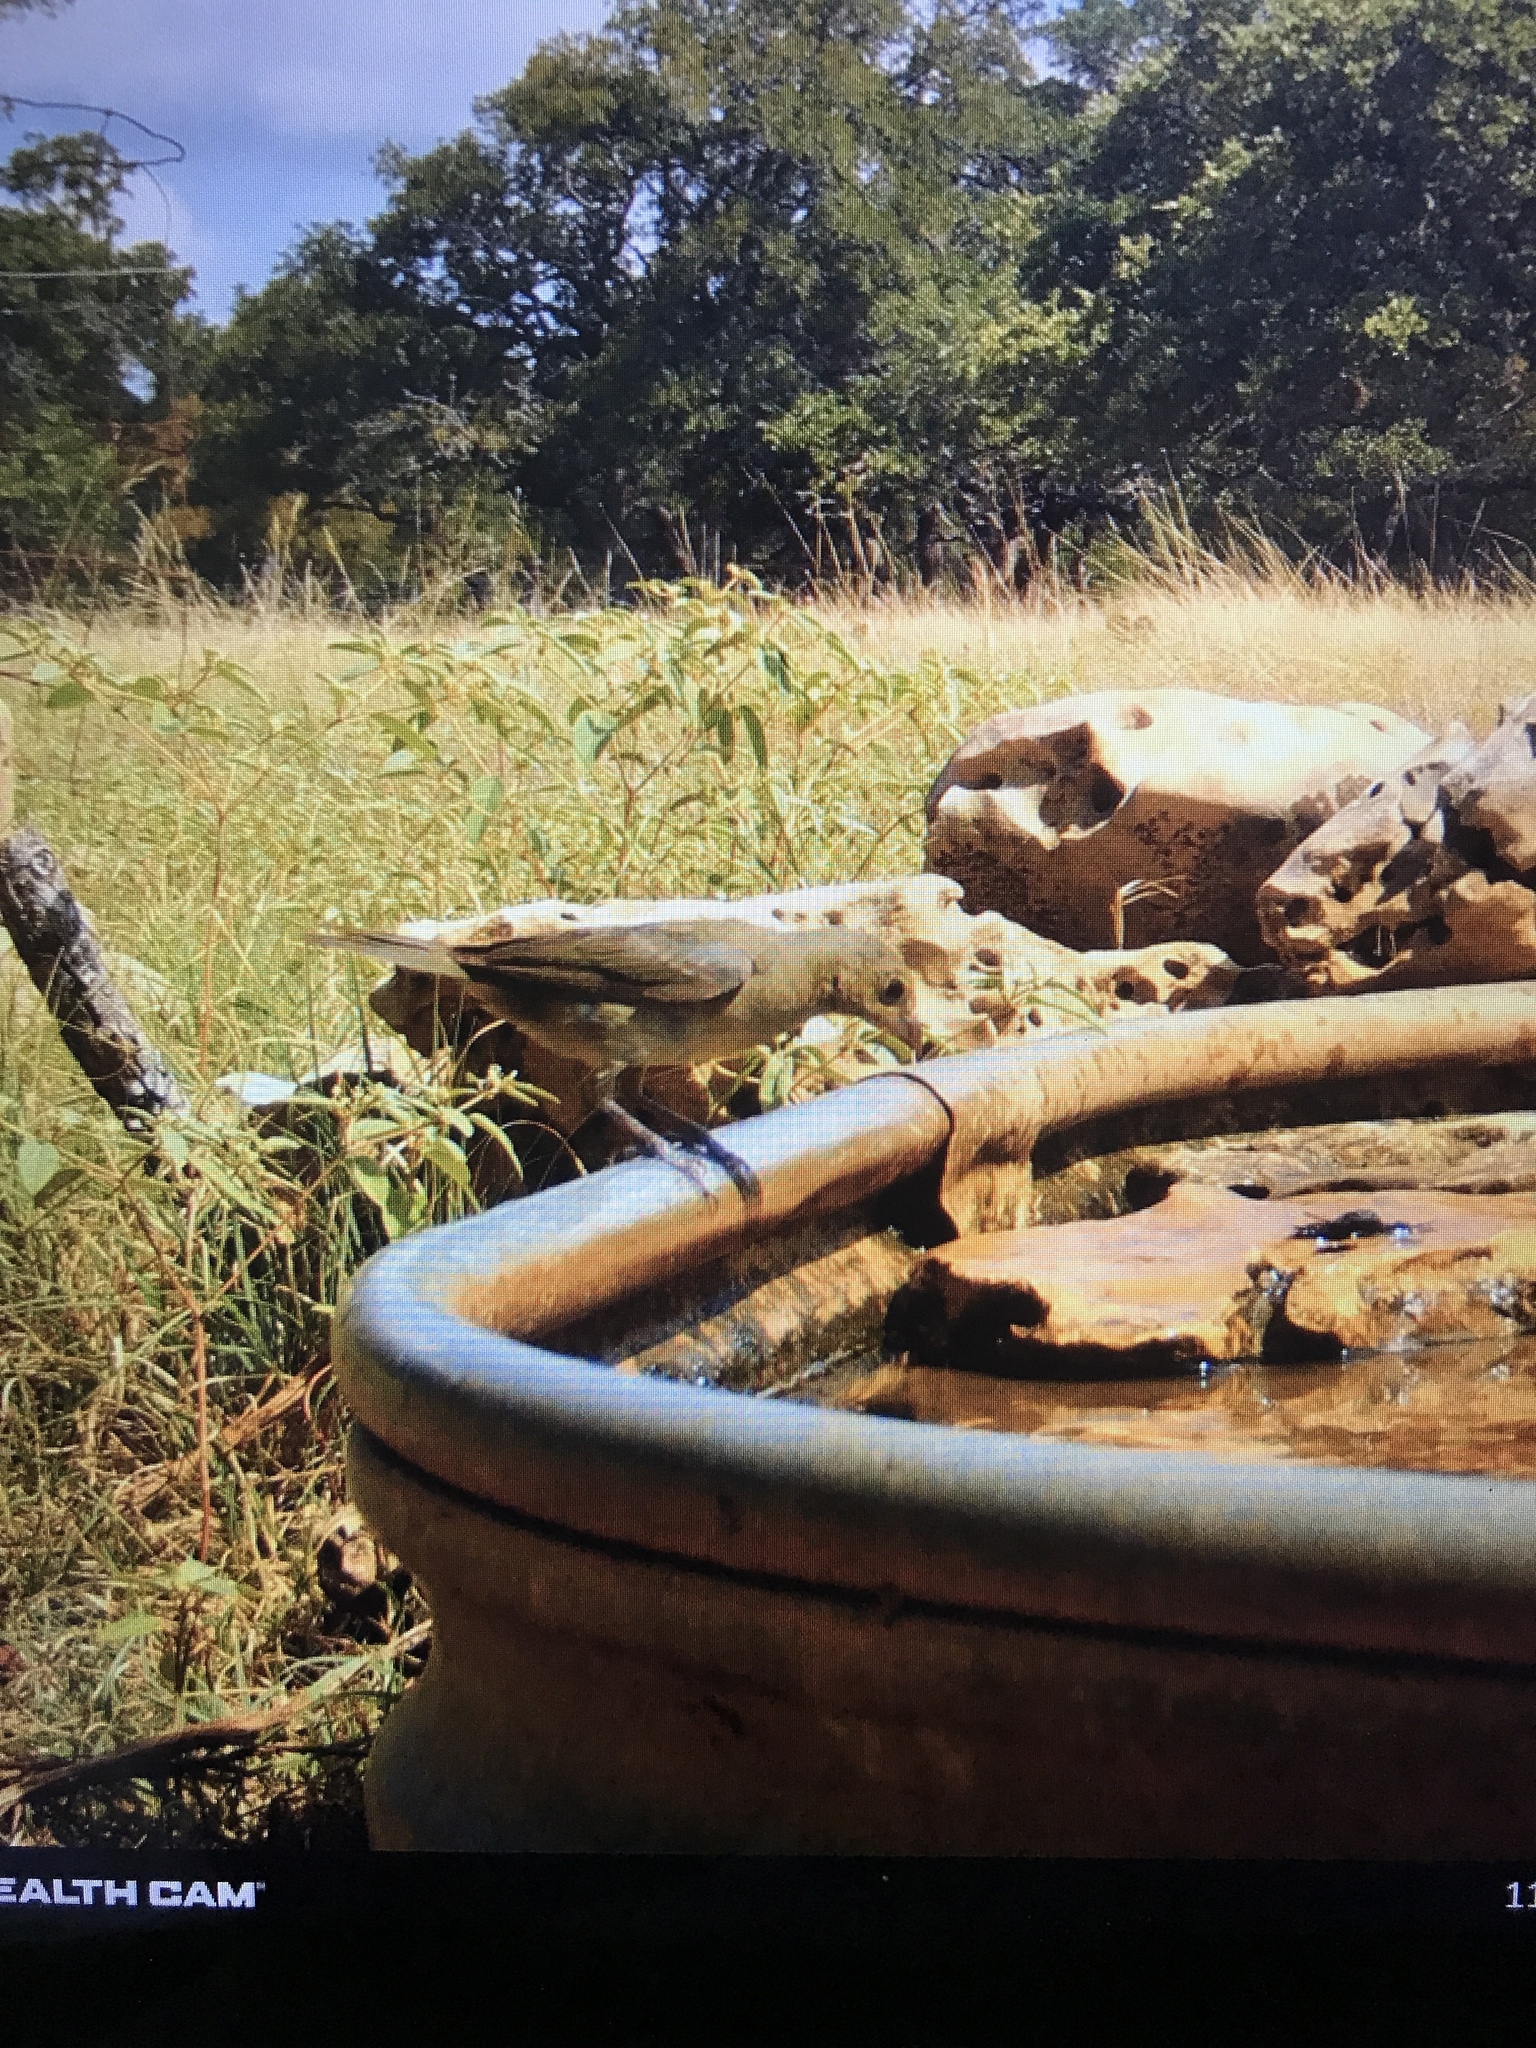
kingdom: Animalia
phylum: Chordata
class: Aves
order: Passeriformes
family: Cardinalidae
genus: Passerina
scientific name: Passerina ciris
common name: Painted bunting
